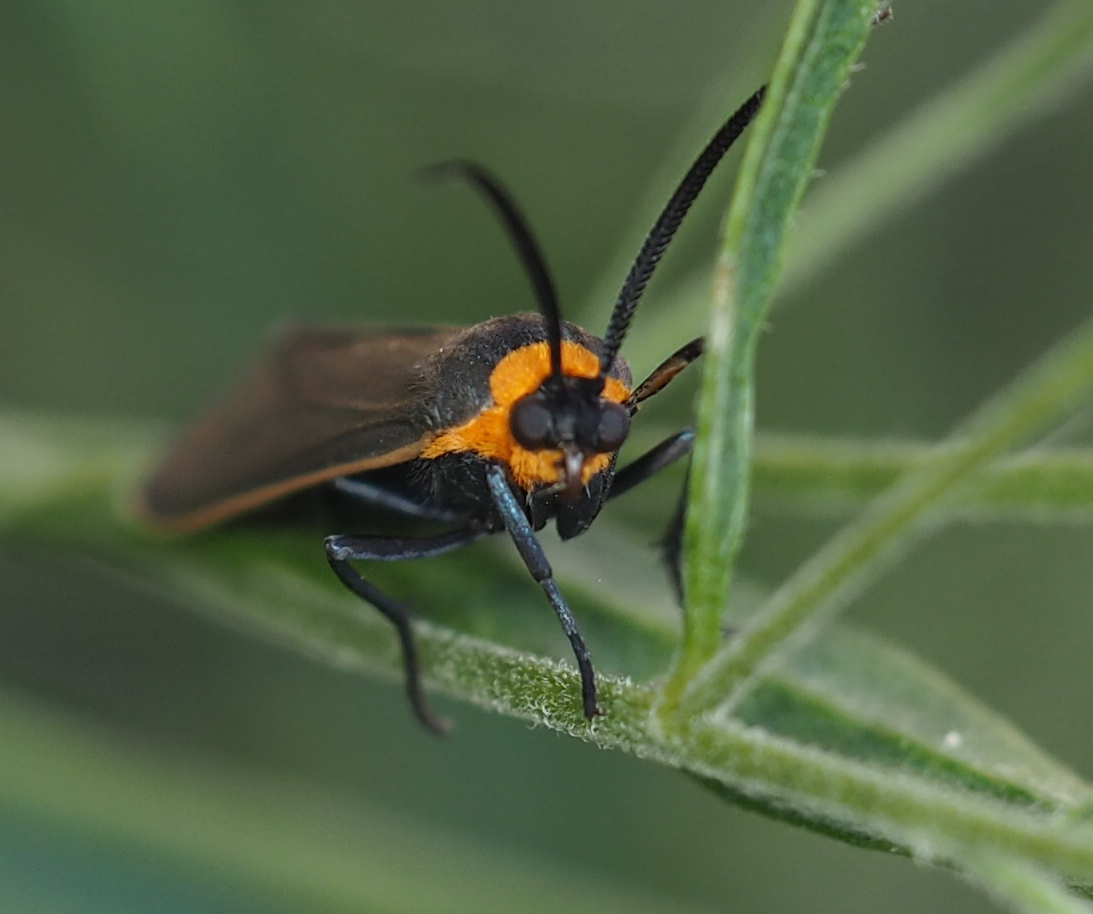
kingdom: Animalia
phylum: Arthropoda
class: Insecta
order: Lepidoptera
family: Erebidae
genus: Cisseps
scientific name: Cisseps fulvicollis
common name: Yellow-collared scape moth
